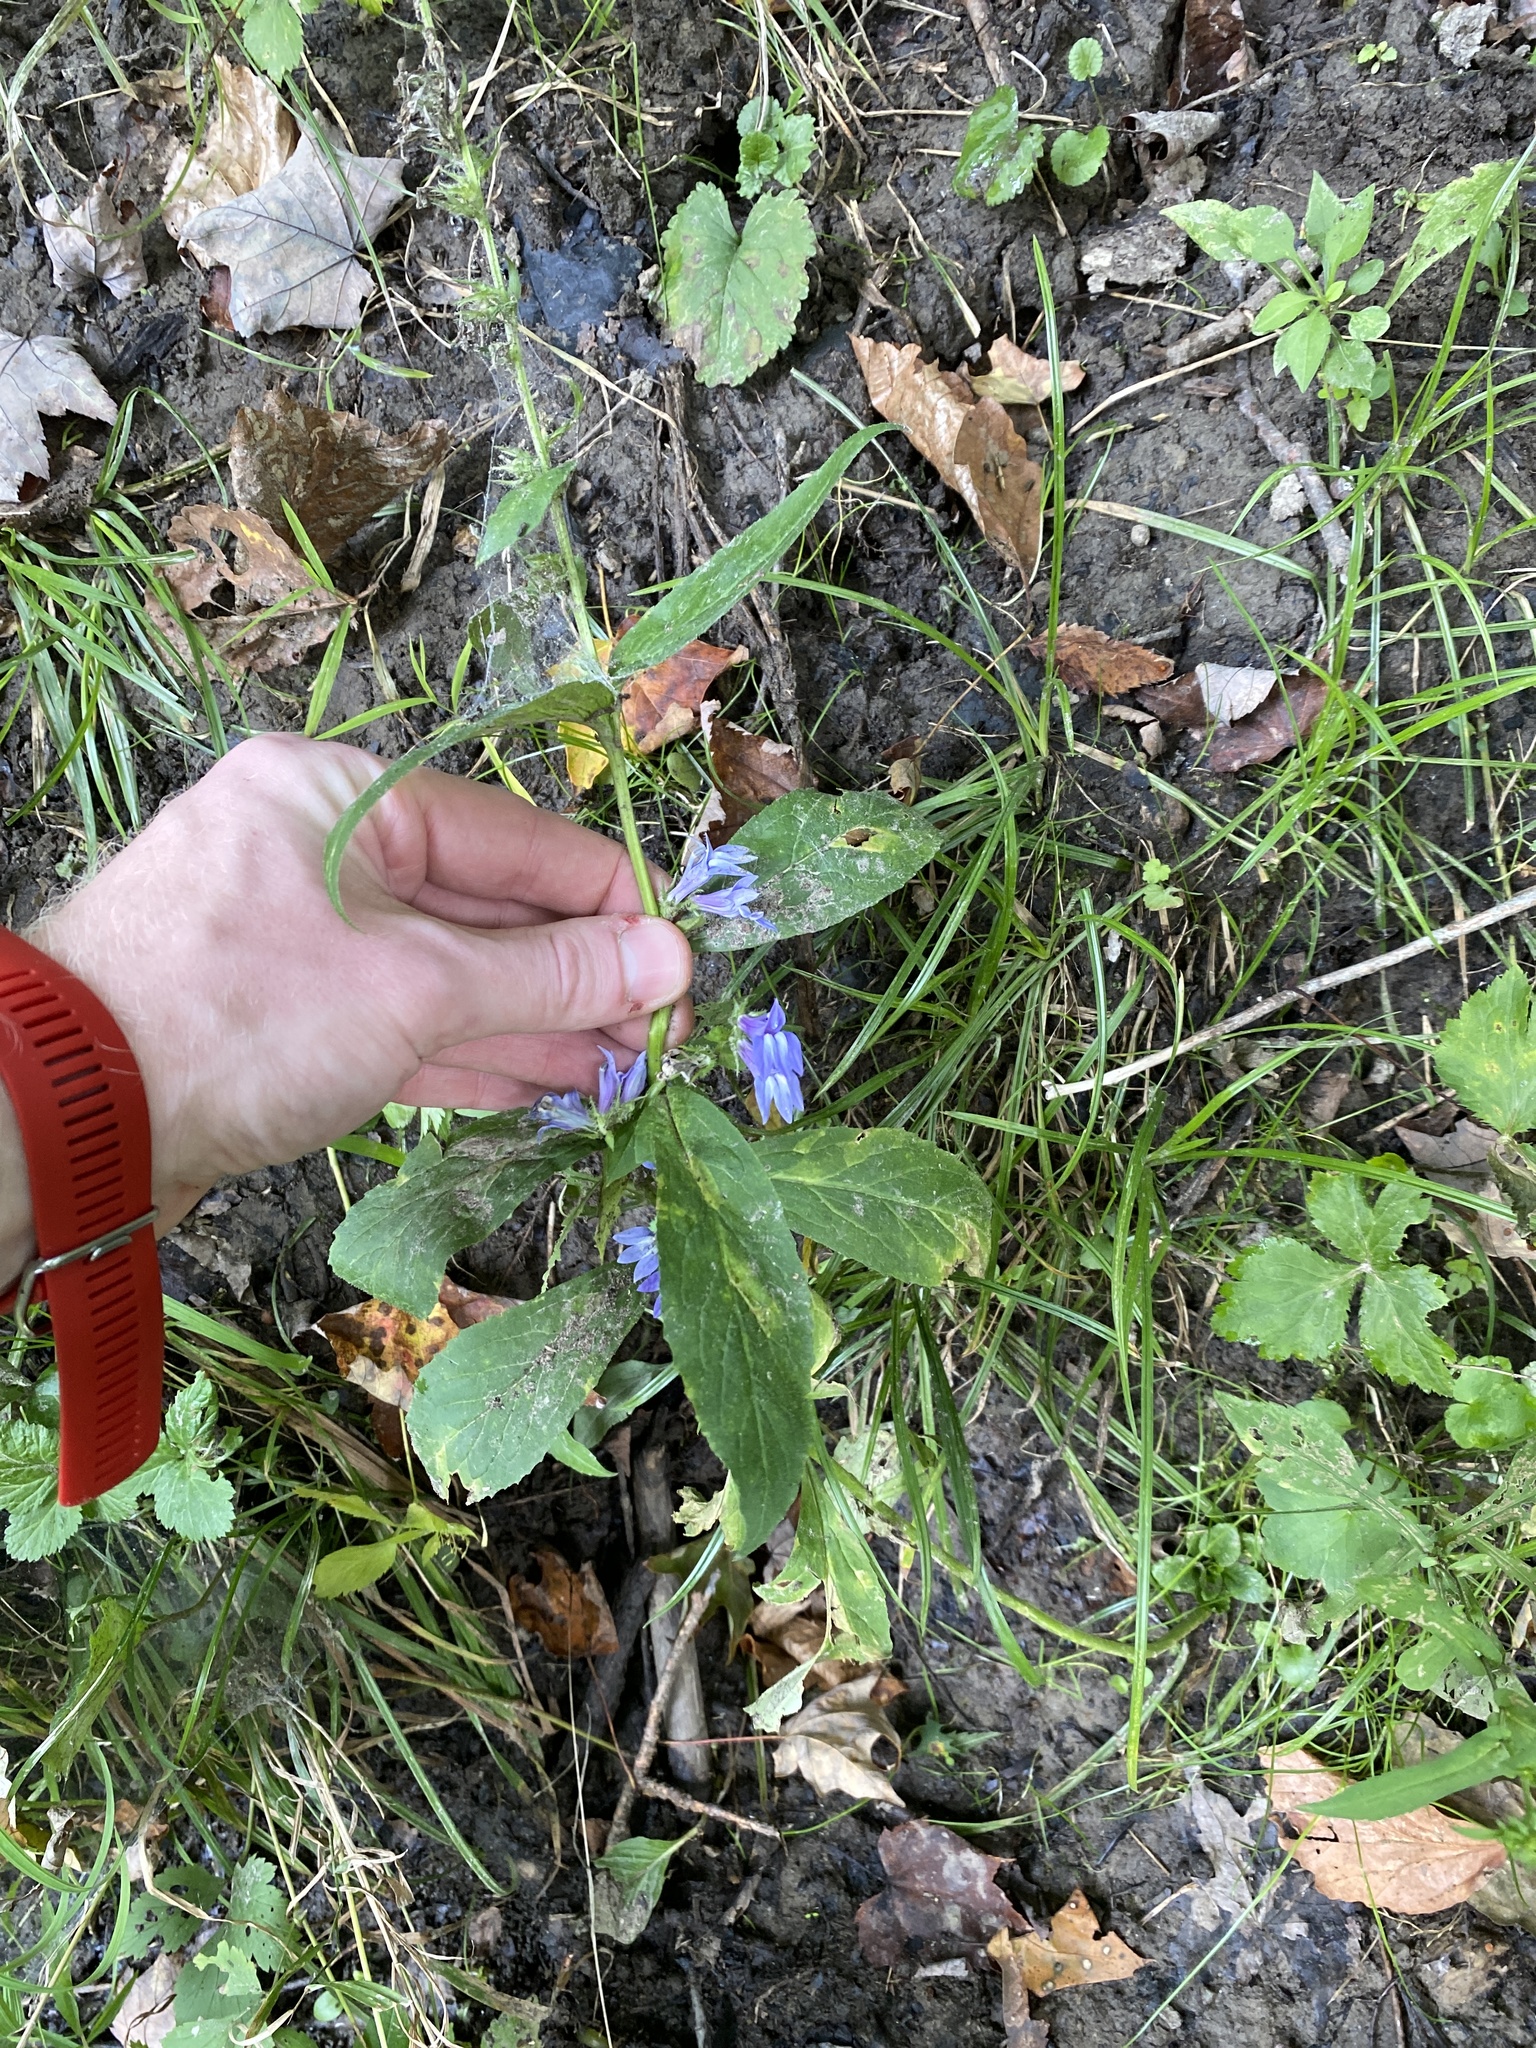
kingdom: Plantae
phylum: Tracheophyta
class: Magnoliopsida
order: Asterales
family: Campanulaceae
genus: Lobelia
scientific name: Lobelia siphilitica
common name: Great lobelia
